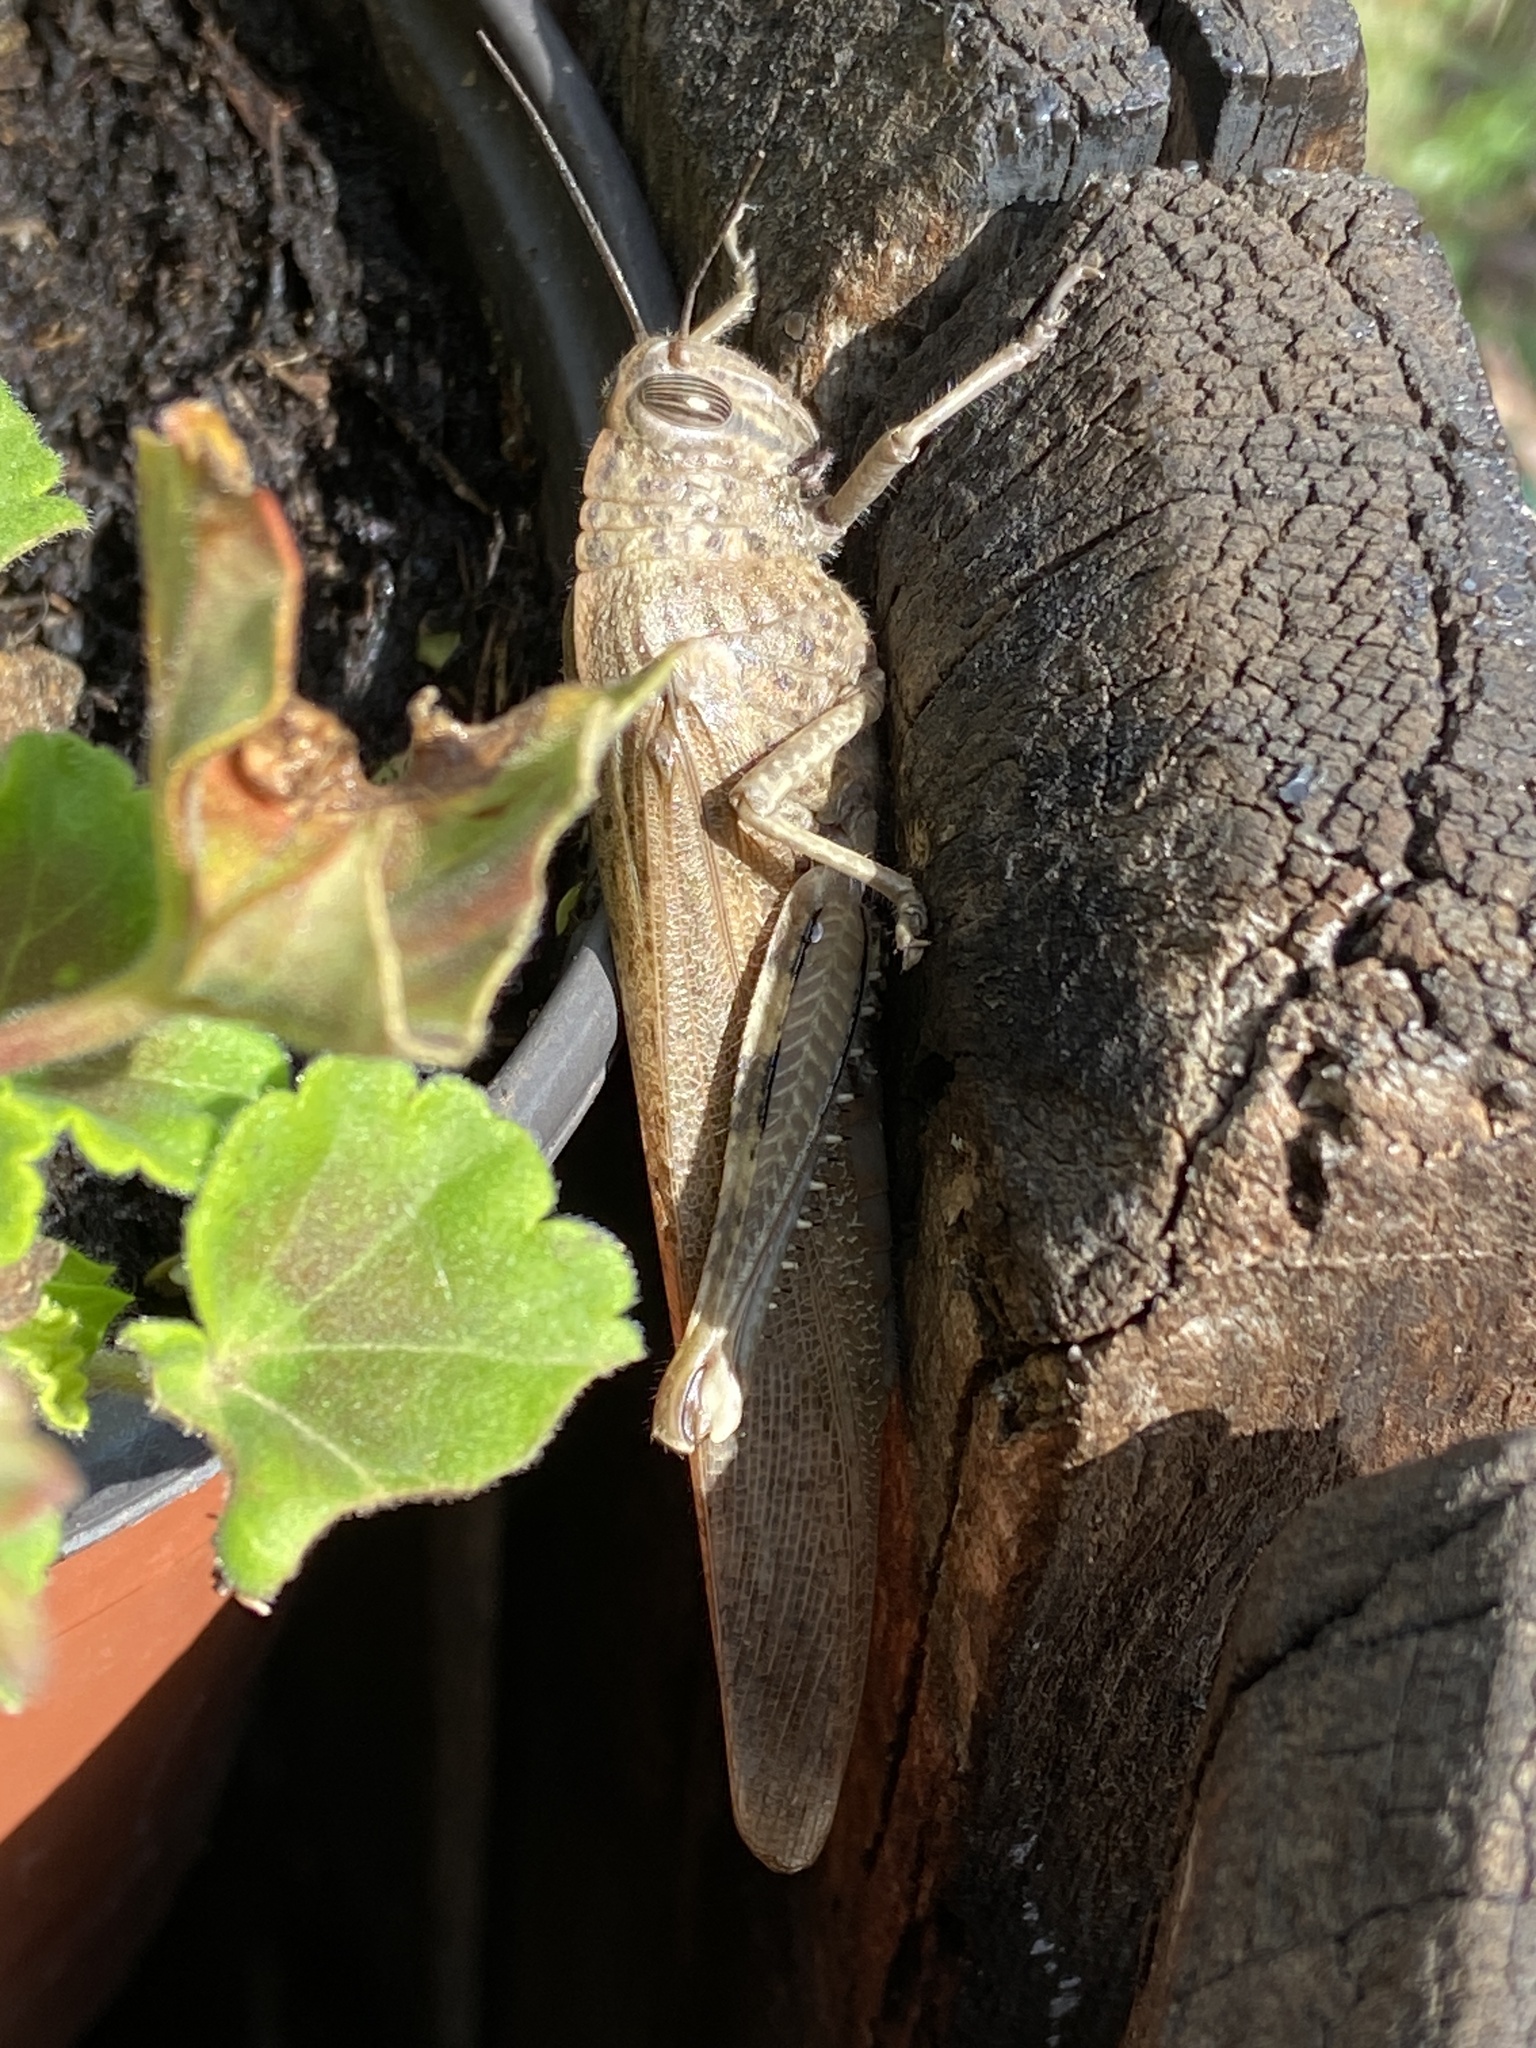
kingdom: Animalia
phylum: Arthropoda
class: Insecta
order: Orthoptera
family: Acrididae
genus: Anacridium
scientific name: Anacridium aegyptium
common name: Egyptian grasshopper
